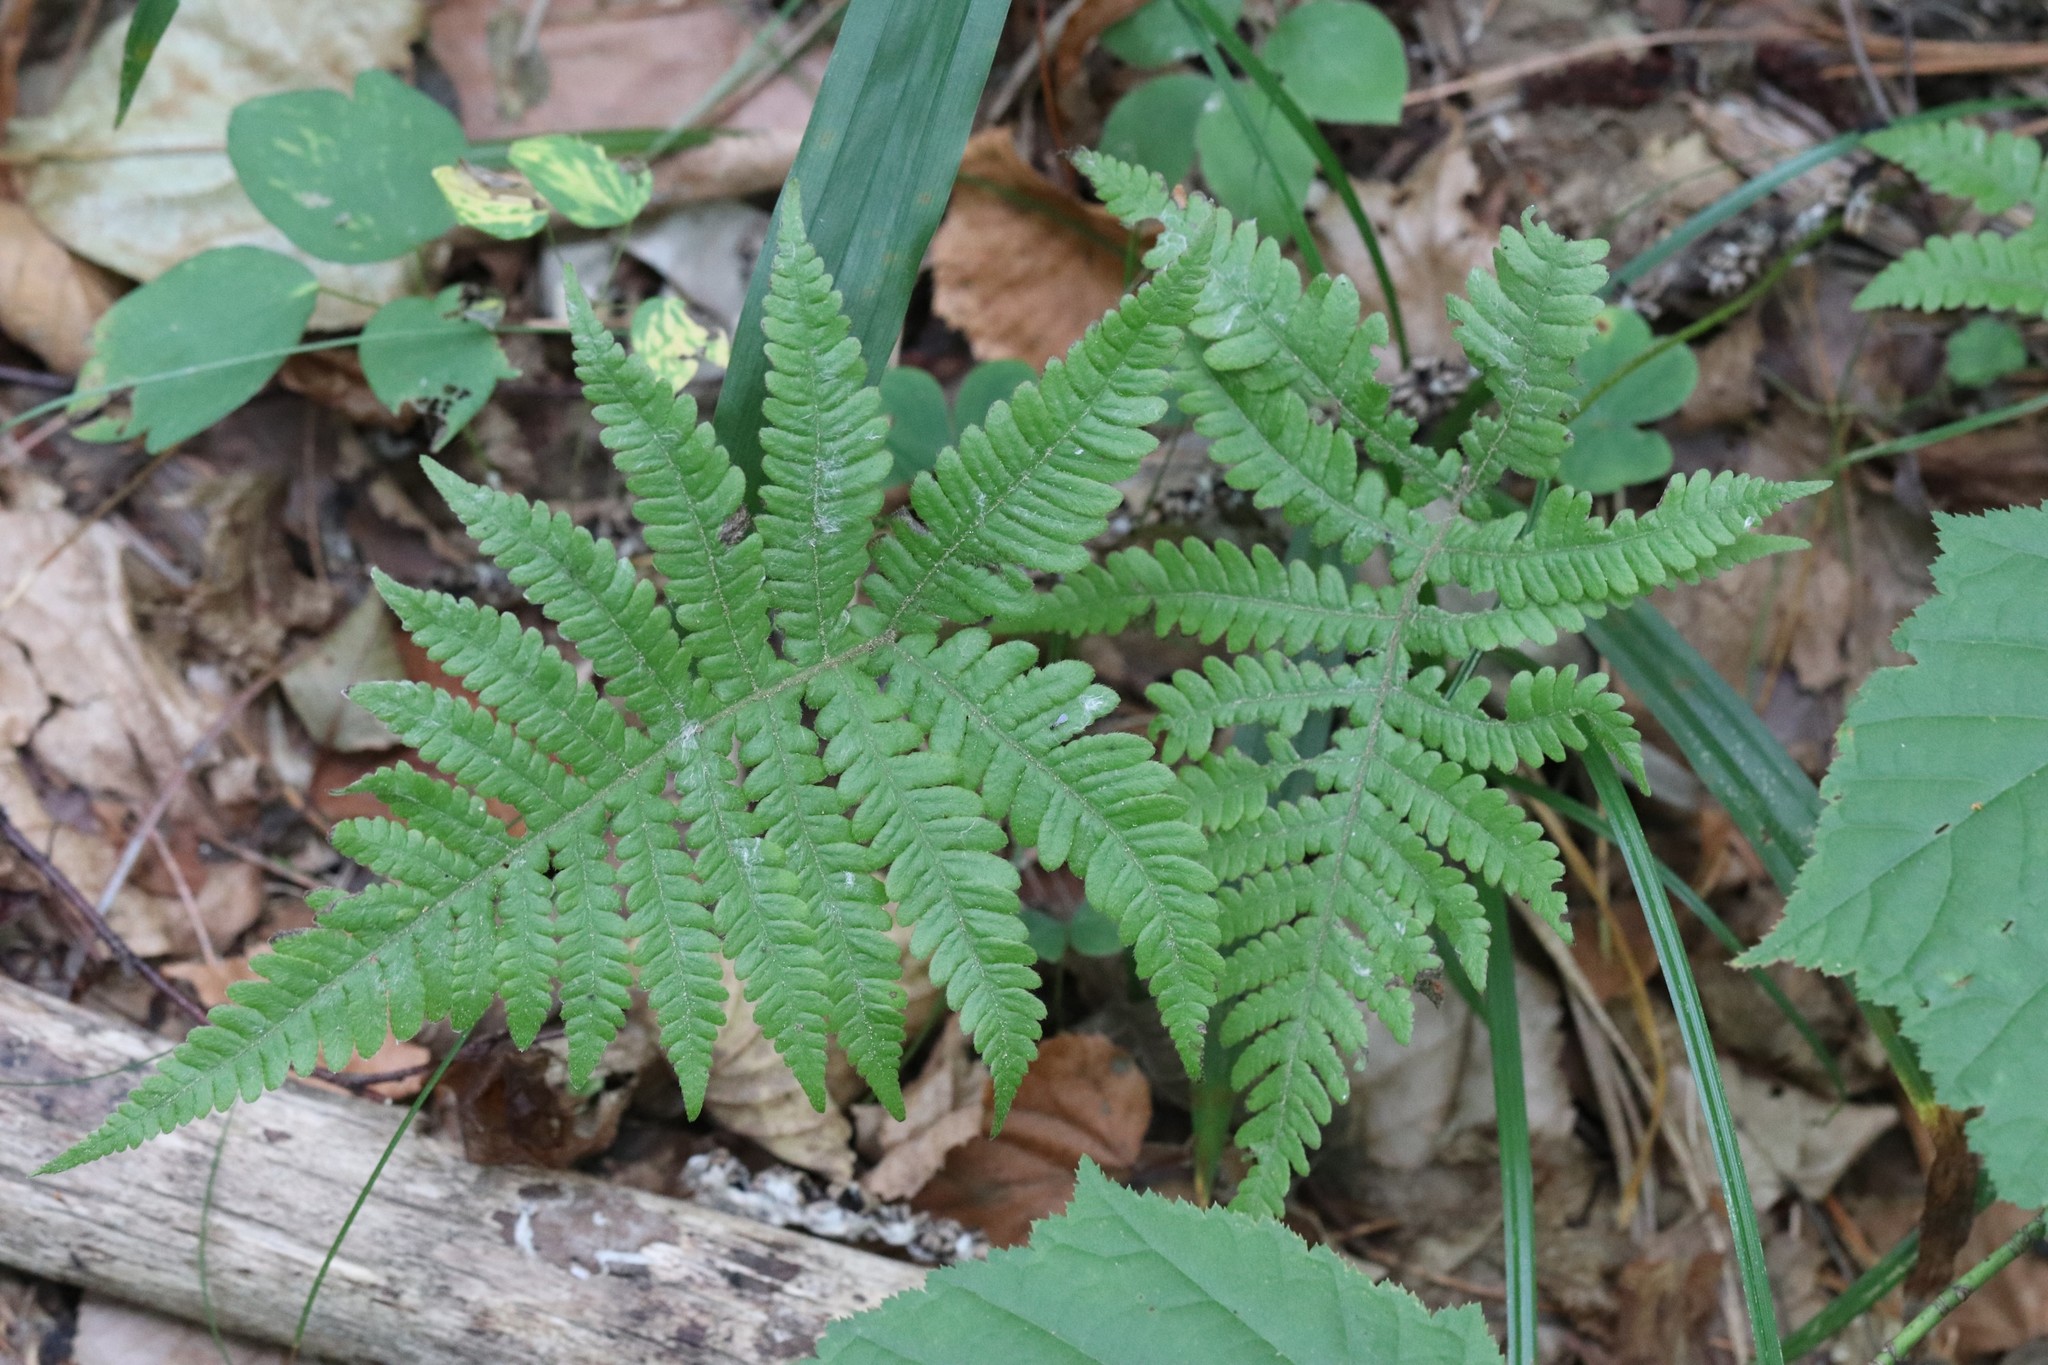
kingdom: Plantae
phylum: Tracheophyta
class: Polypodiopsida
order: Polypodiales
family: Thelypteridaceae
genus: Phegopteris
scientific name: Phegopteris connectilis
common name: Beech fern
